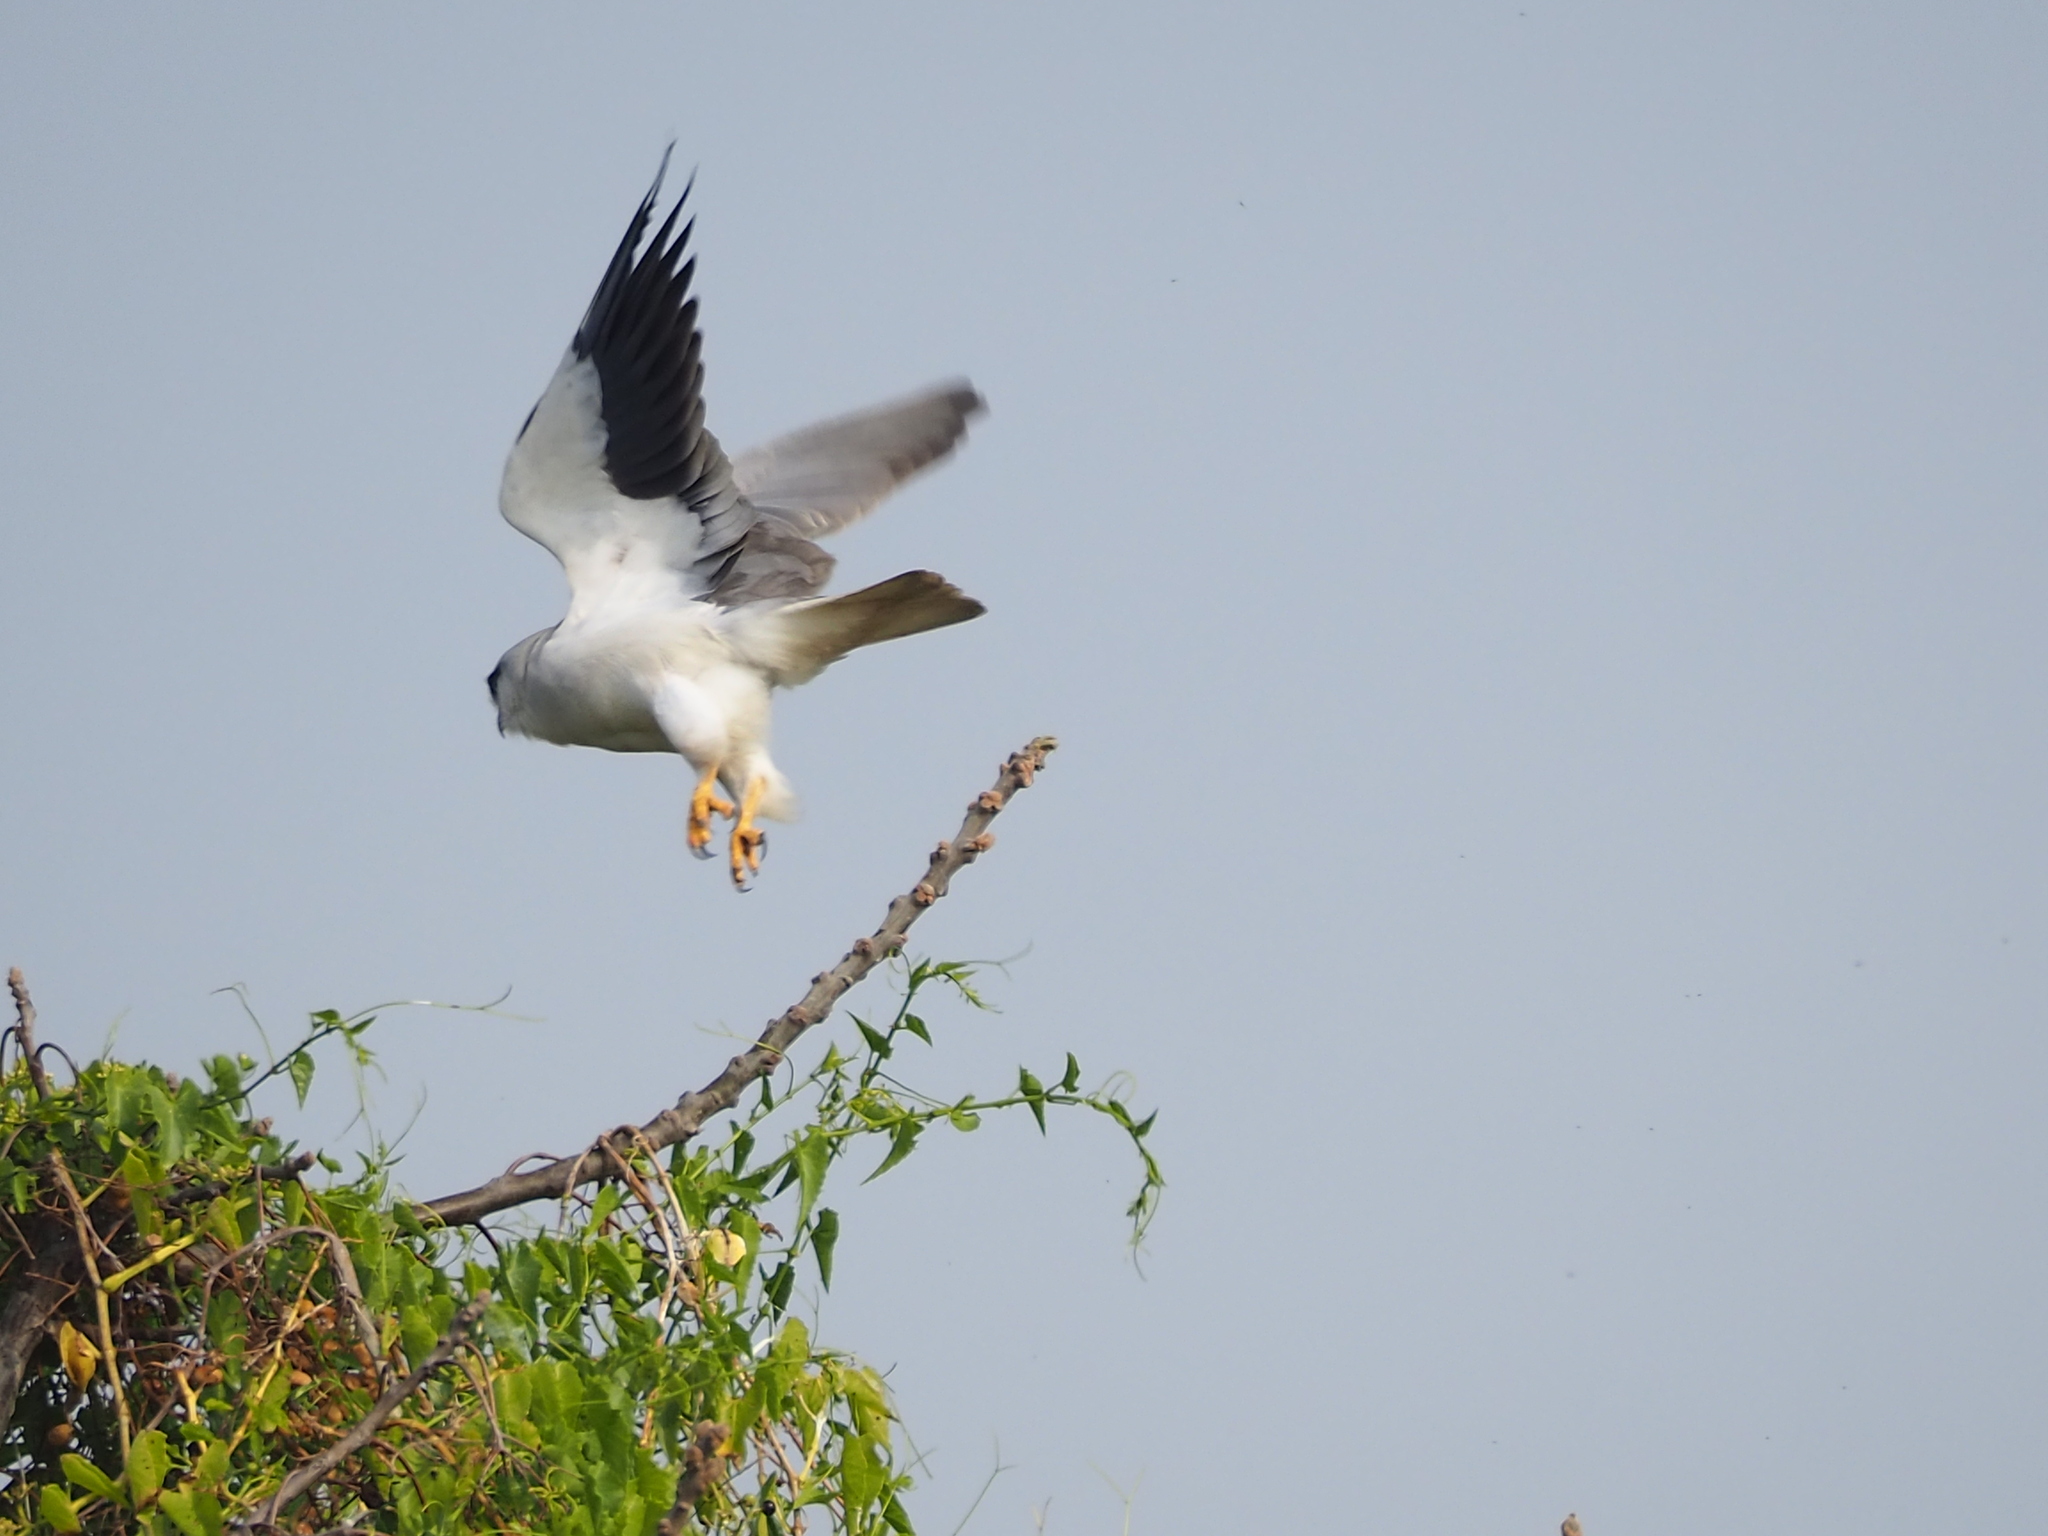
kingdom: Animalia
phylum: Chordata
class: Aves
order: Accipitriformes
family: Accipitridae
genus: Elanus
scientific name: Elanus caeruleus
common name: Black-winged kite
